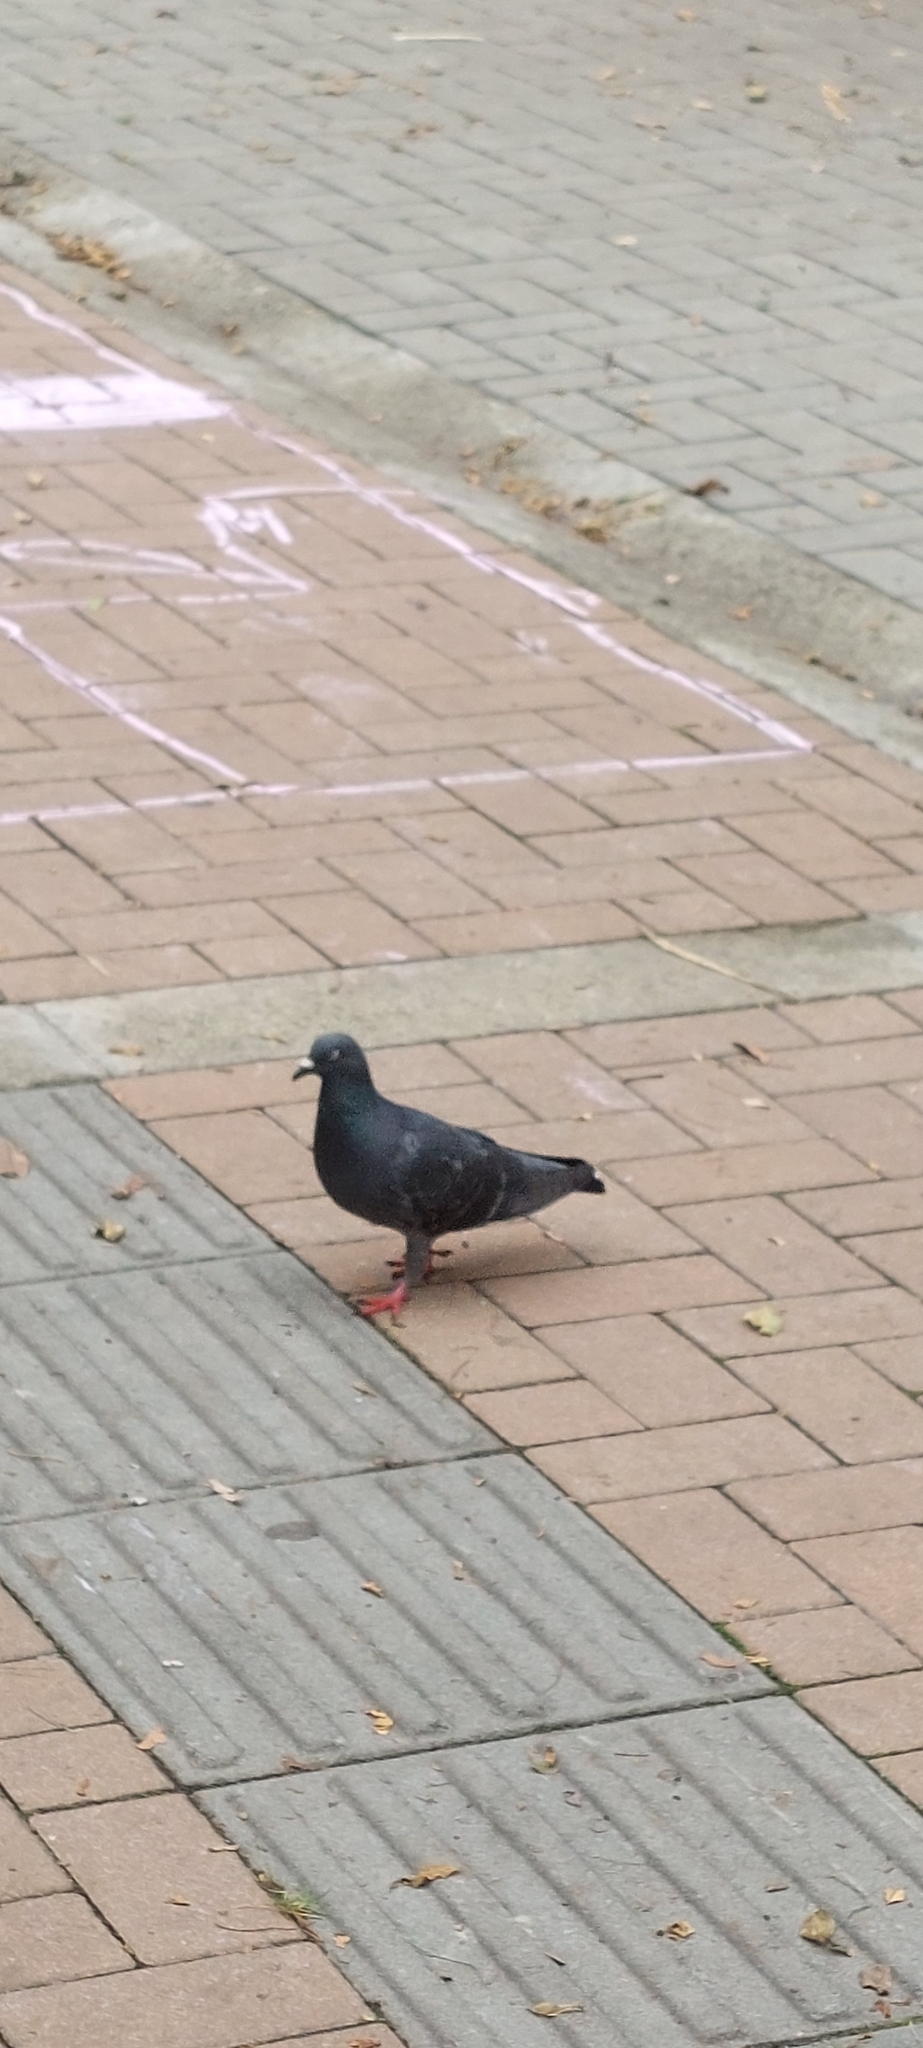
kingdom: Animalia
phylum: Chordata
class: Aves
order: Columbiformes
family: Columbidae
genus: Columba
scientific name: Columba livia
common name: Rock pigeon
